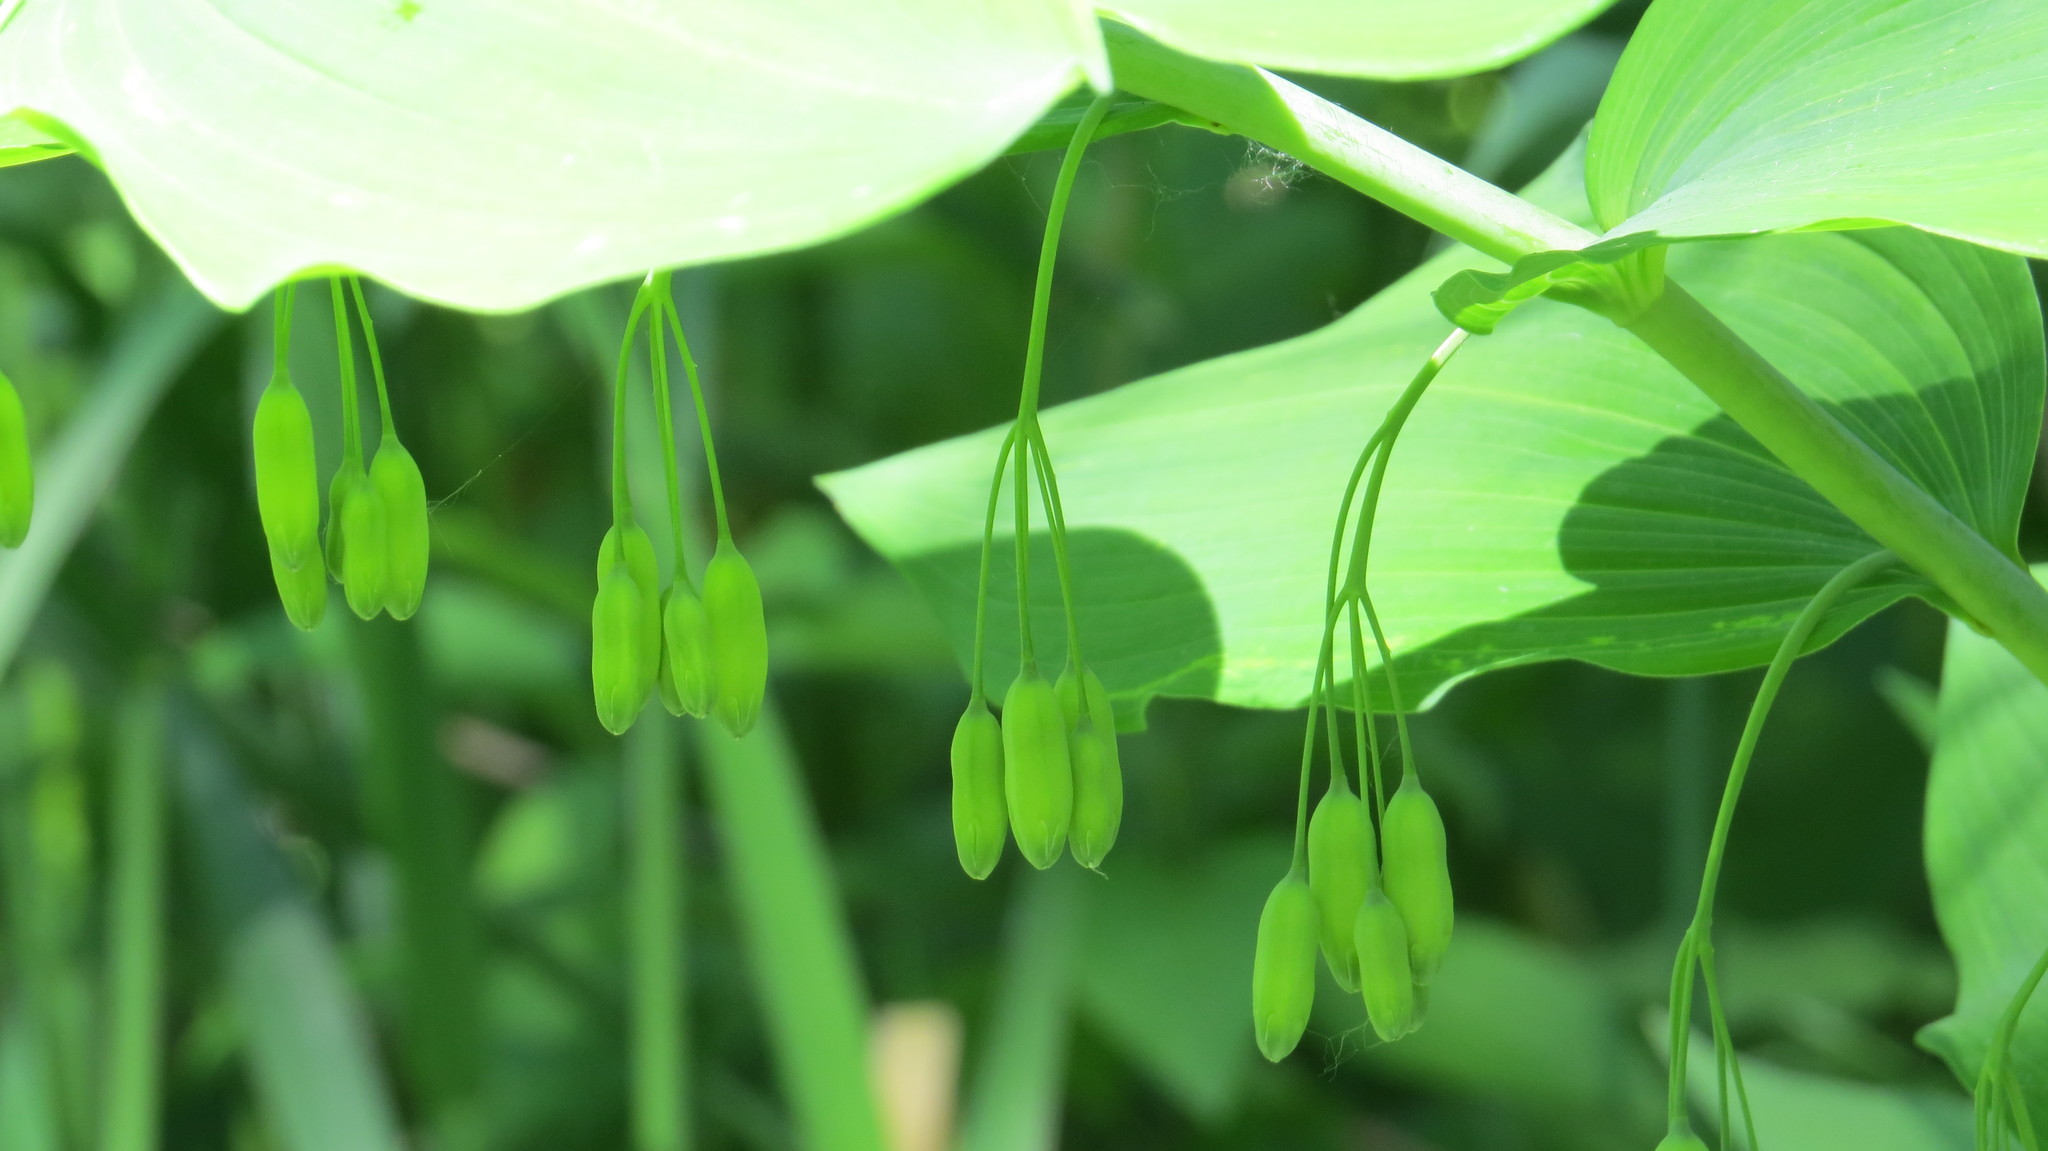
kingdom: Plantae
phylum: Tracheophyta
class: Liliopsida
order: Asparagales
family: Asparagaceae
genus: Polygonatum
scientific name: Polygonatum biflorum
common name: American solomon's-seal
